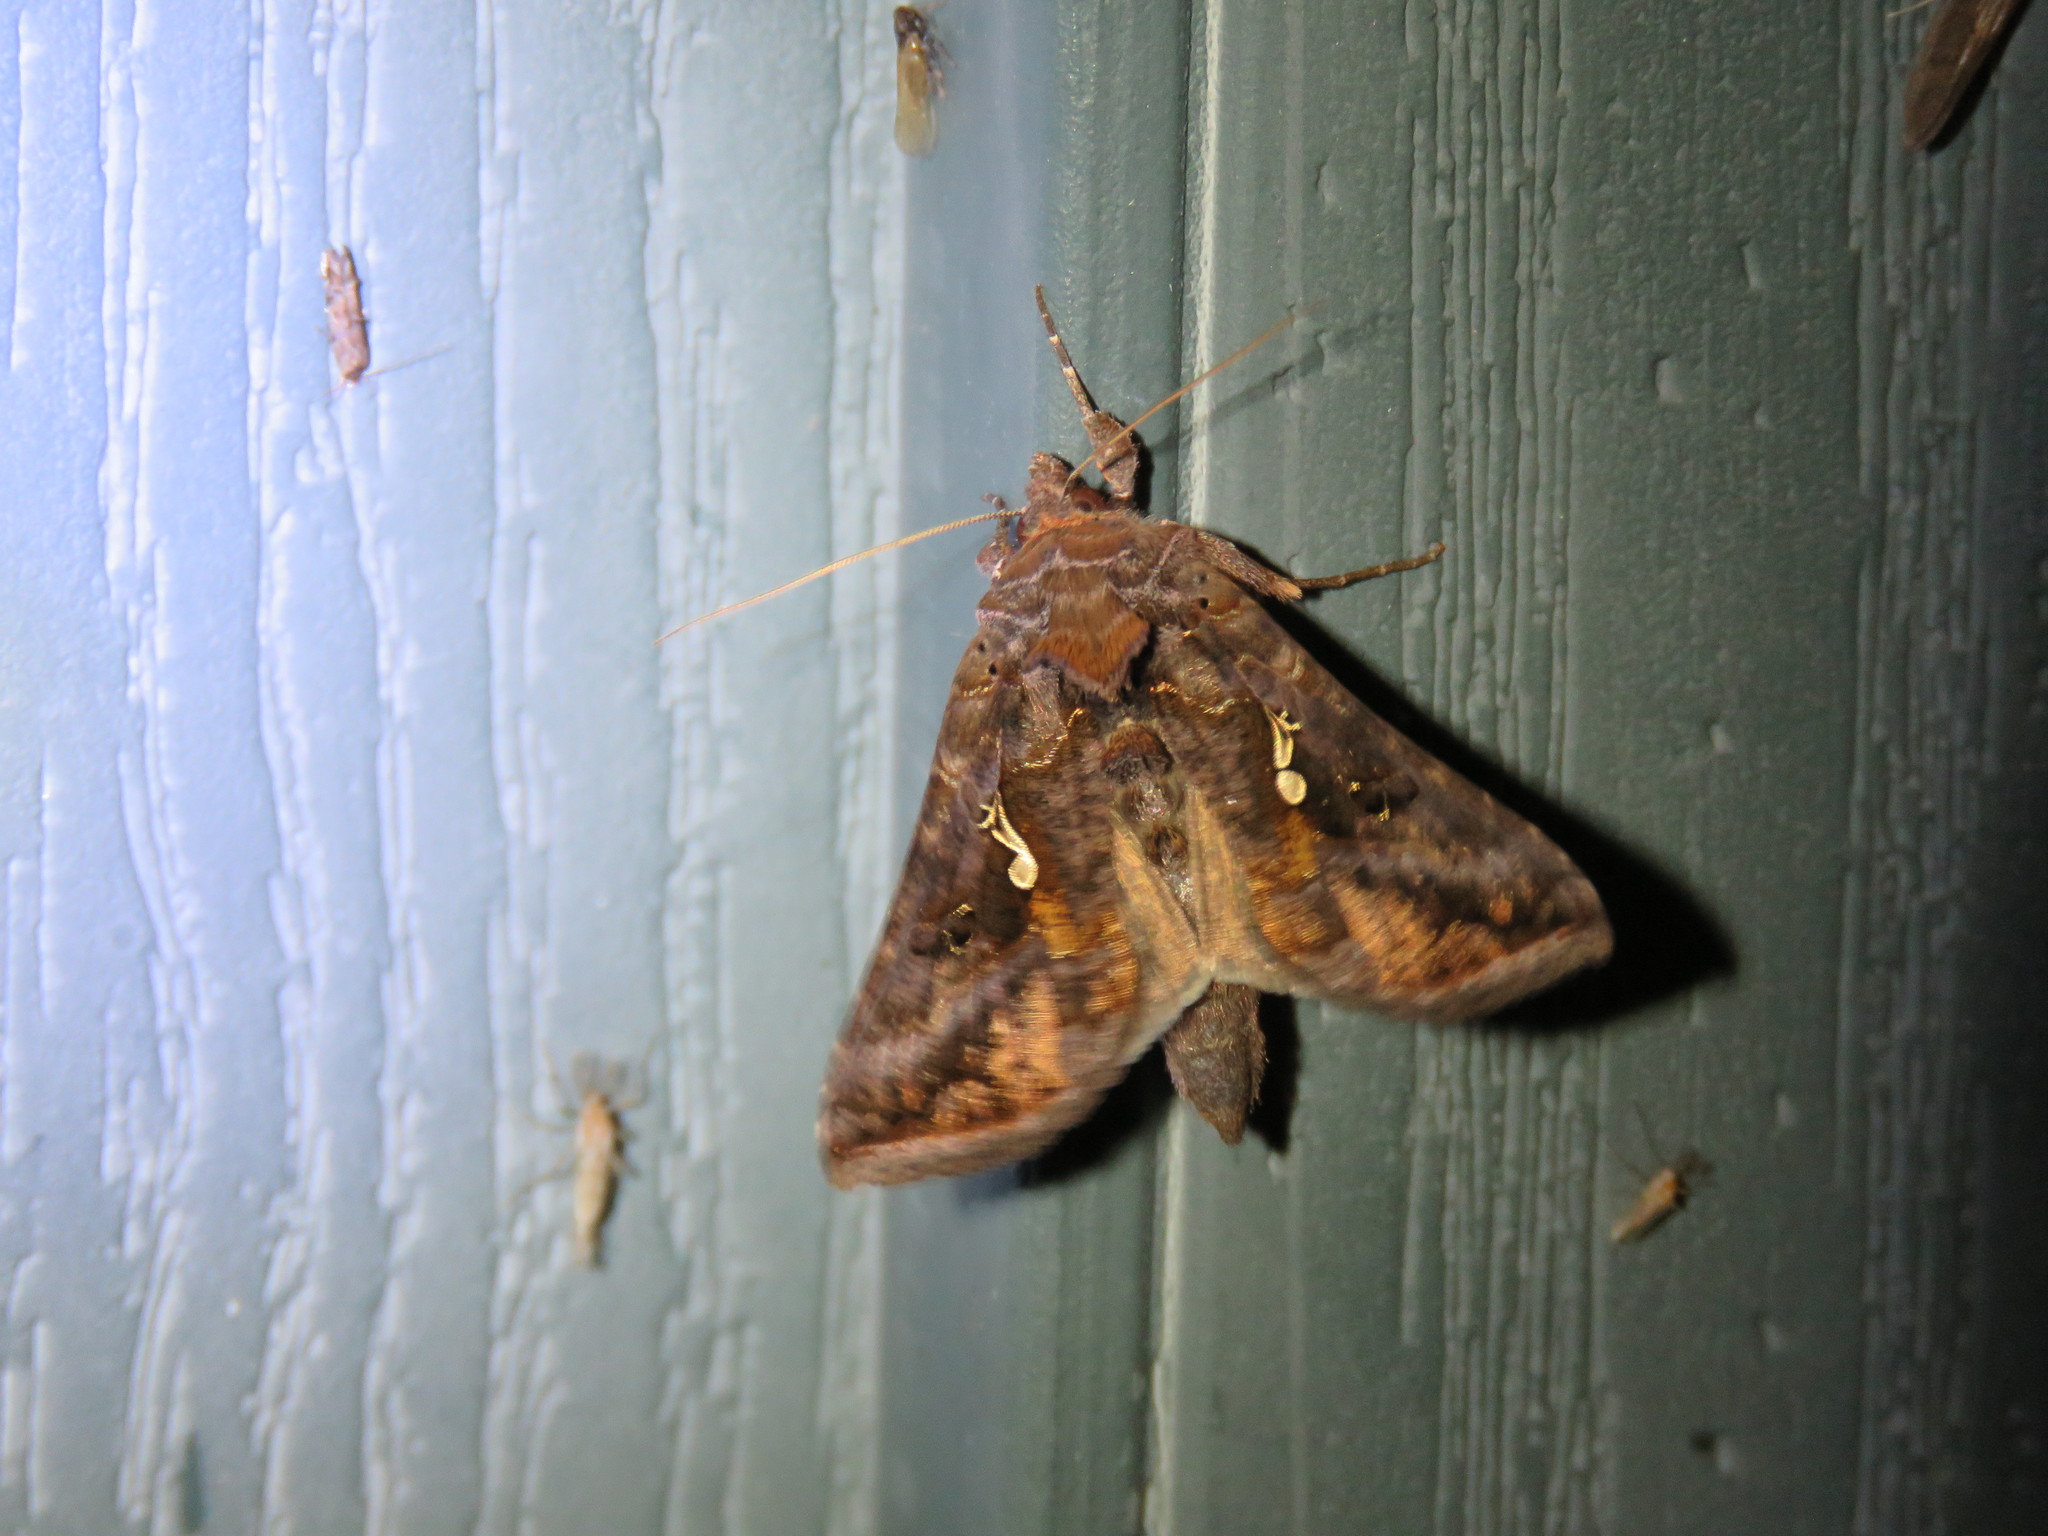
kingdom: Animalia
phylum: Arthropoda
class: Insecta
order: Lepidoptera
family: Noctuidae
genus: Autographa
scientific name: Autographa precationis
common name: Common looper moth
